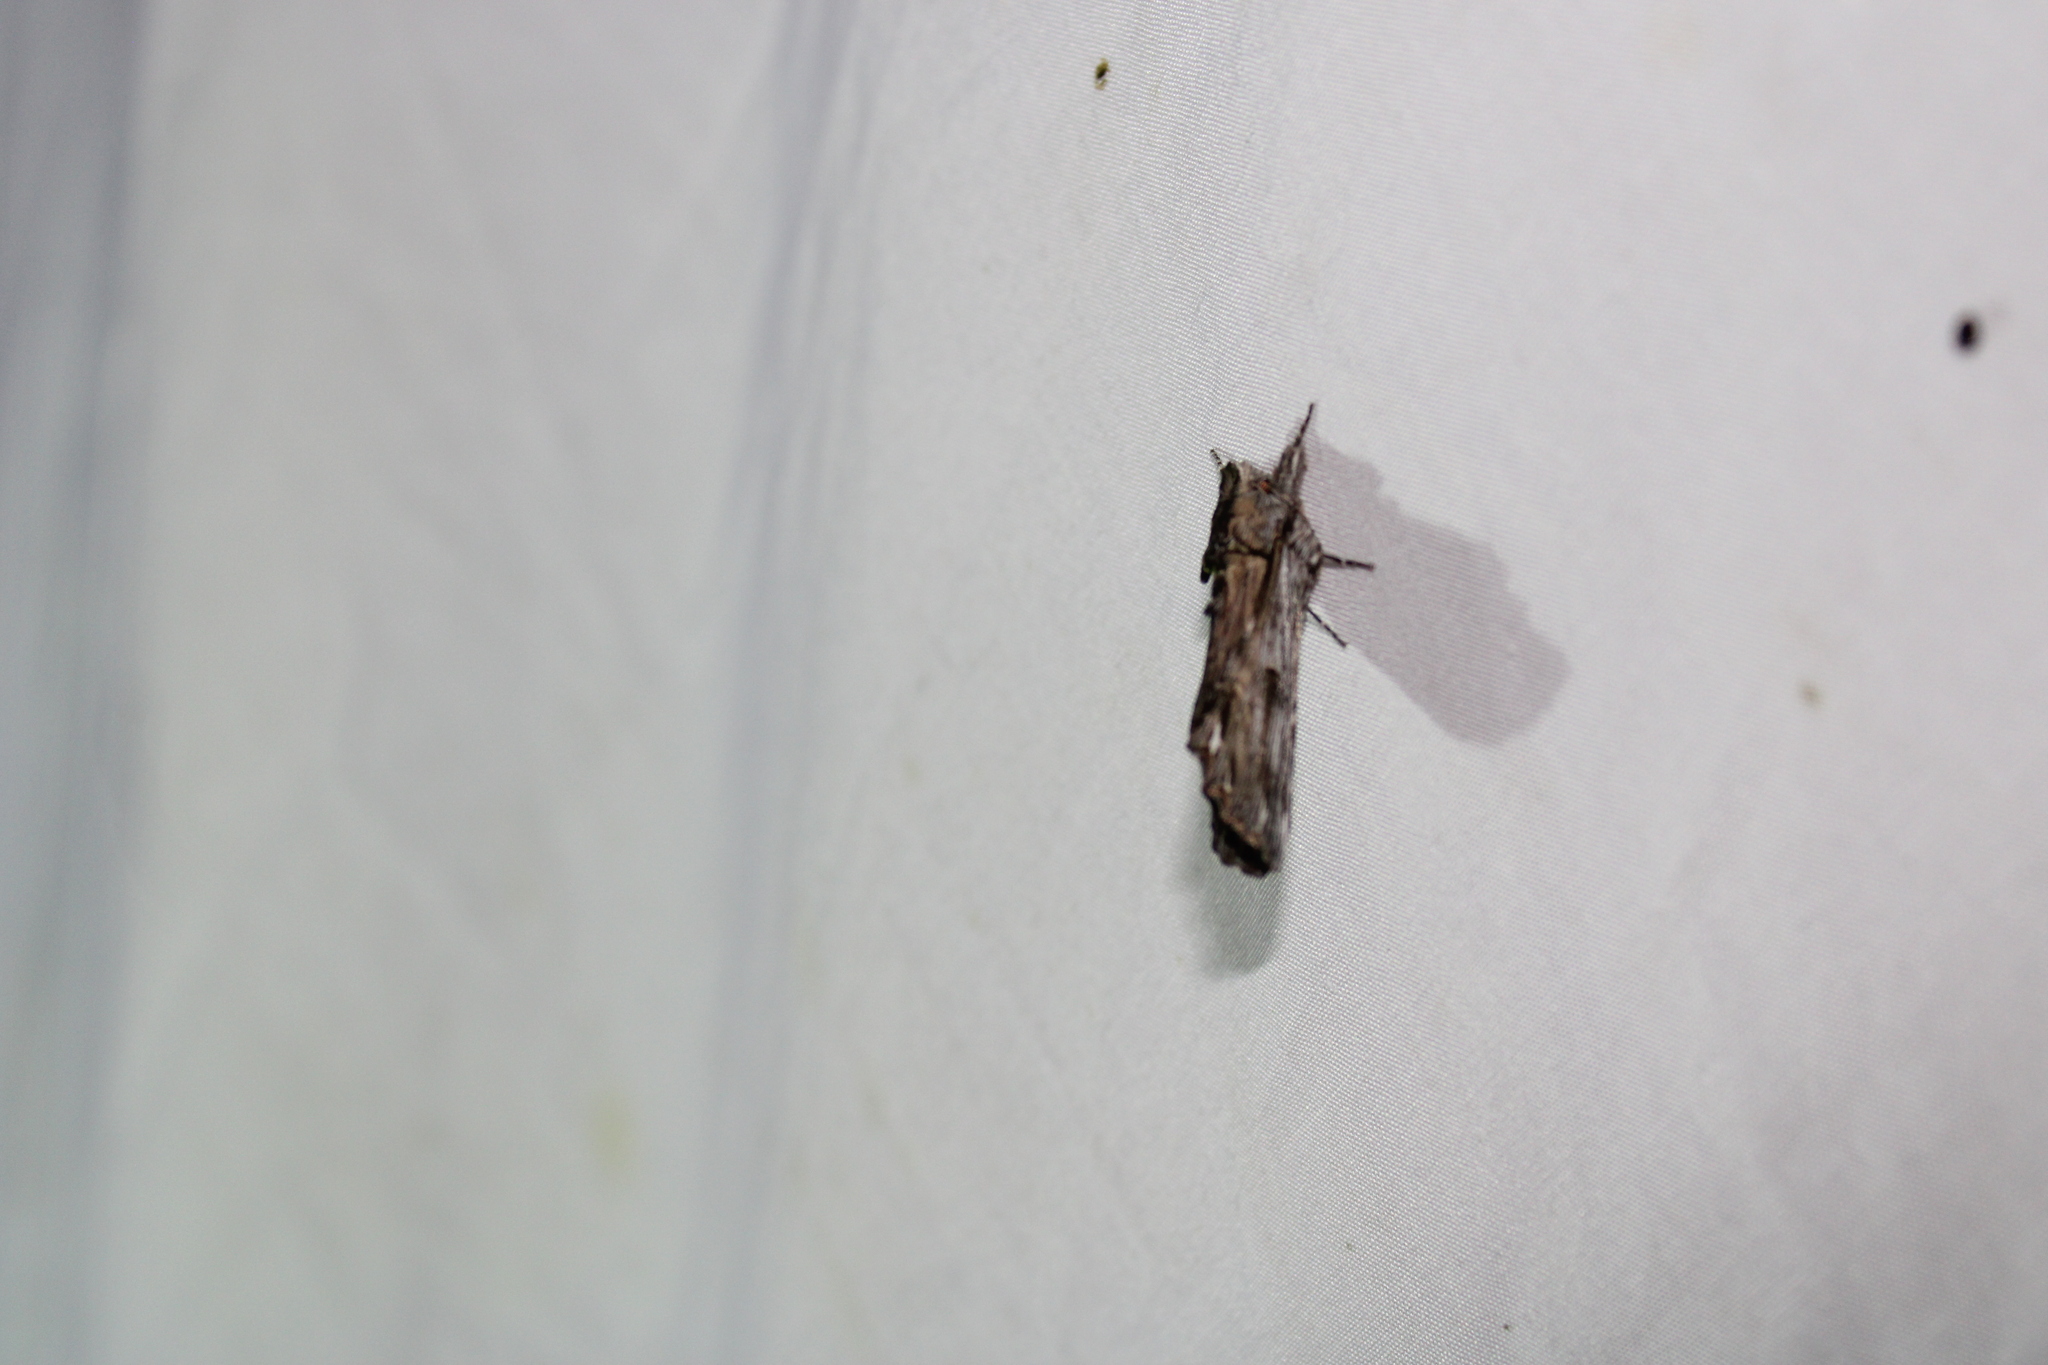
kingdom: Animalia
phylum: Arthropoda
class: Insecta
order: Lepidoptera
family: Notodontidae
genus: Oligocentria
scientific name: Oligocentria Ianassa lignicolor
